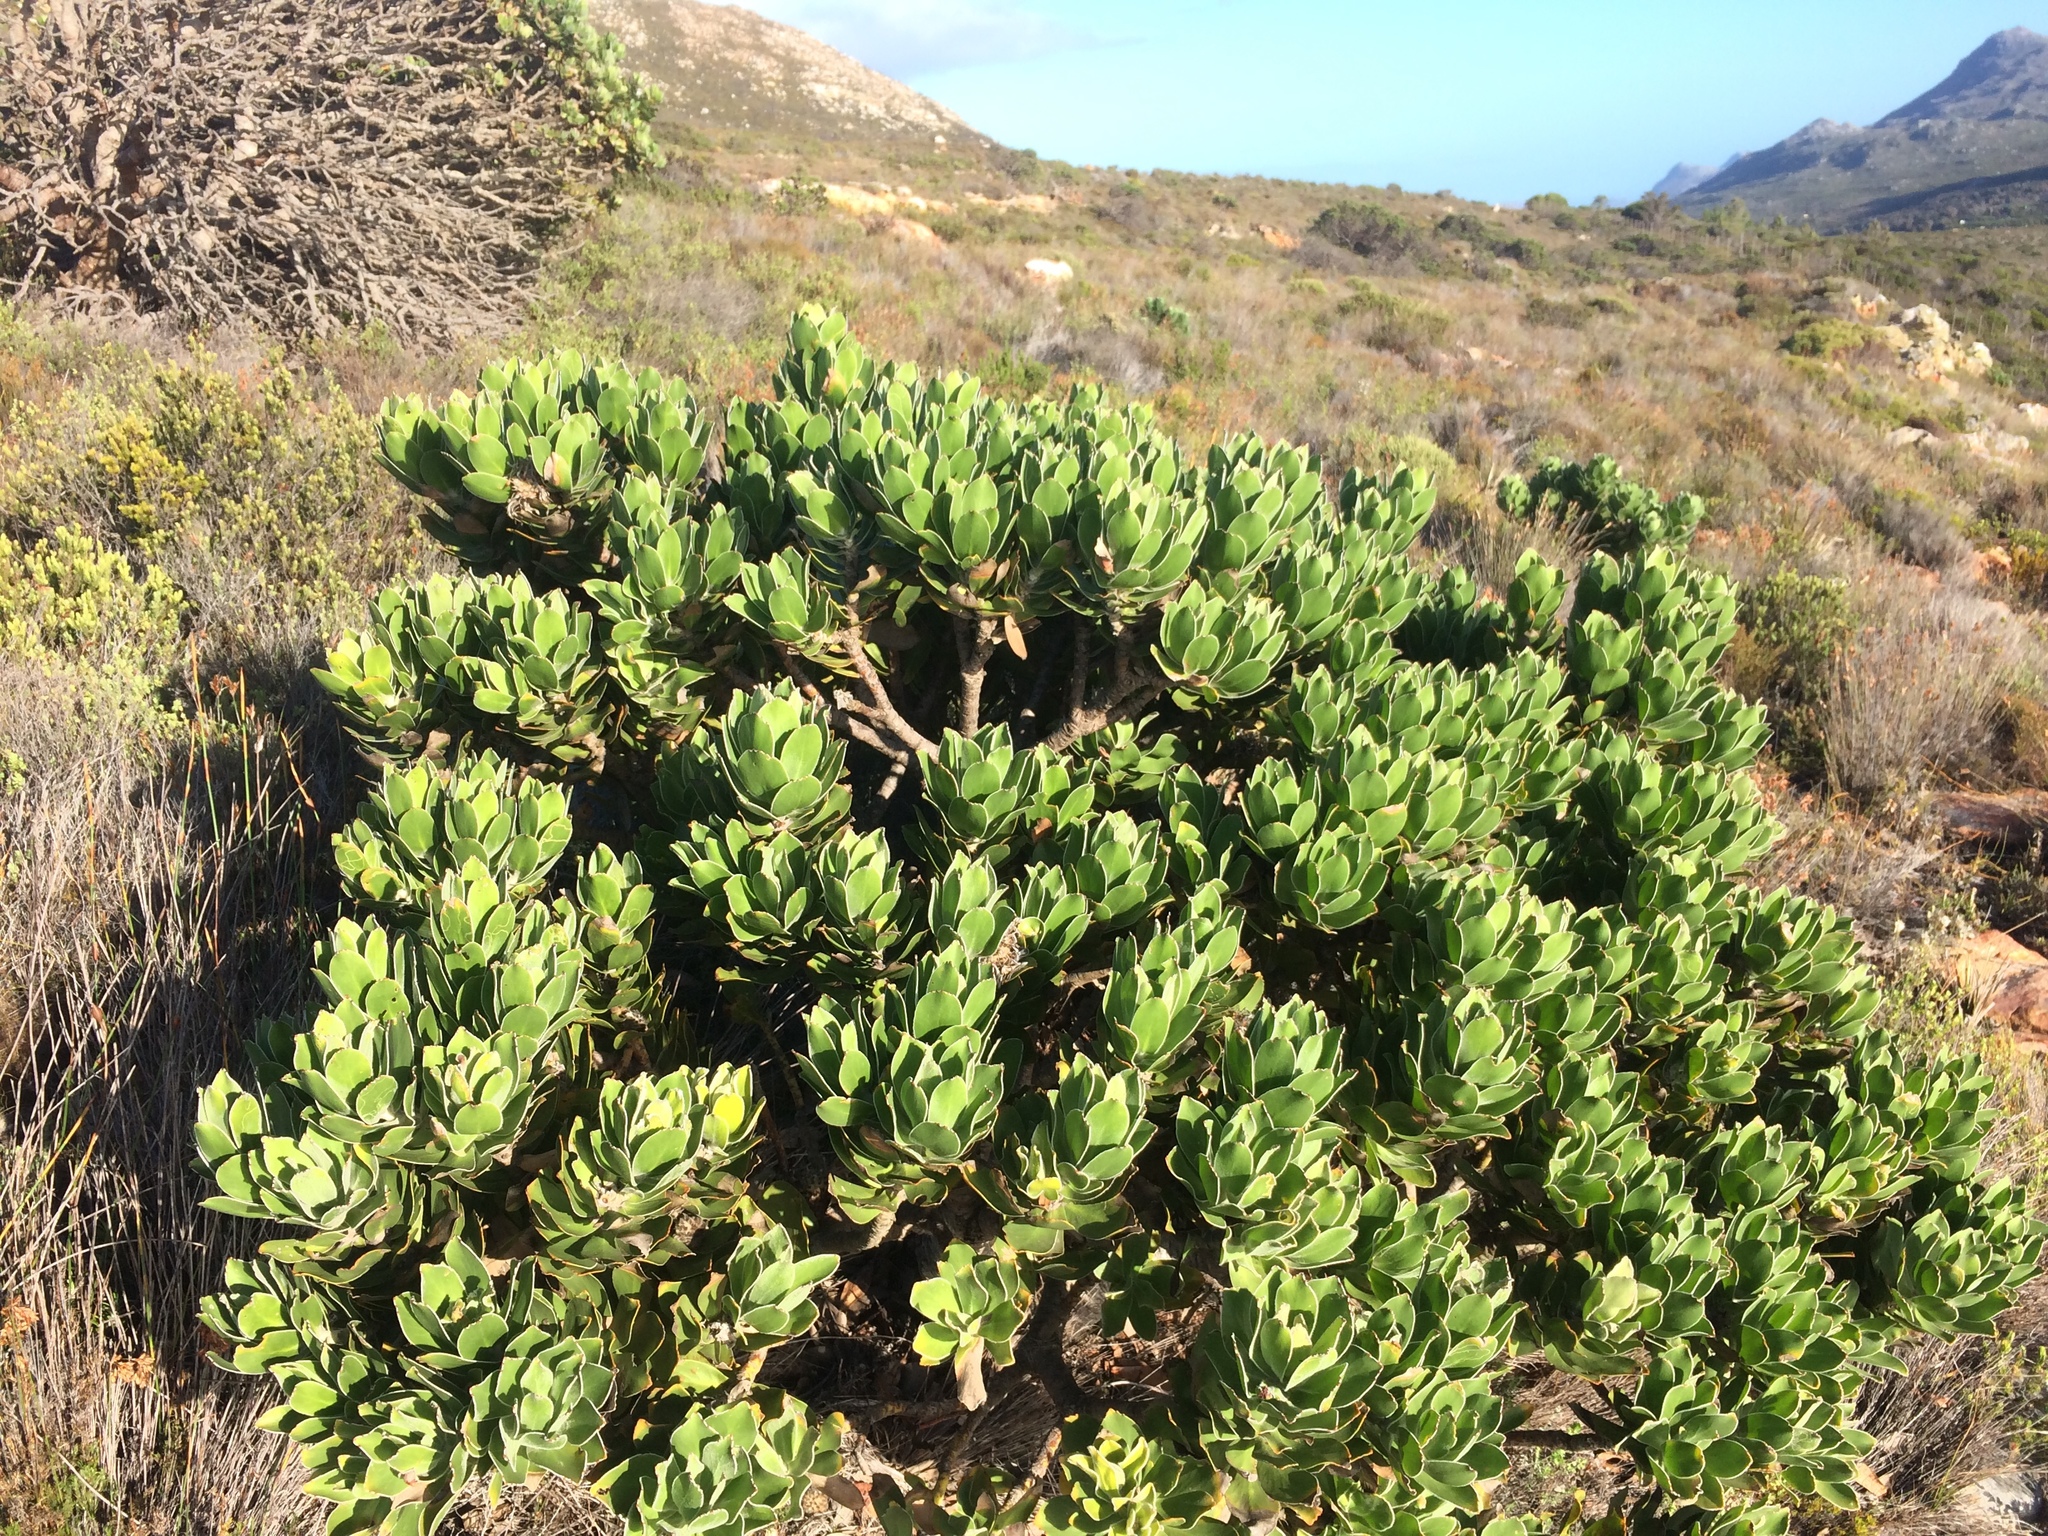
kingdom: Plantae
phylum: Tracheophyta
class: Magnoliopsida
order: Proteales
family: Proteaceae
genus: Leucospermum
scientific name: Leucospermum conocarpodendron
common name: Tree pincushion
